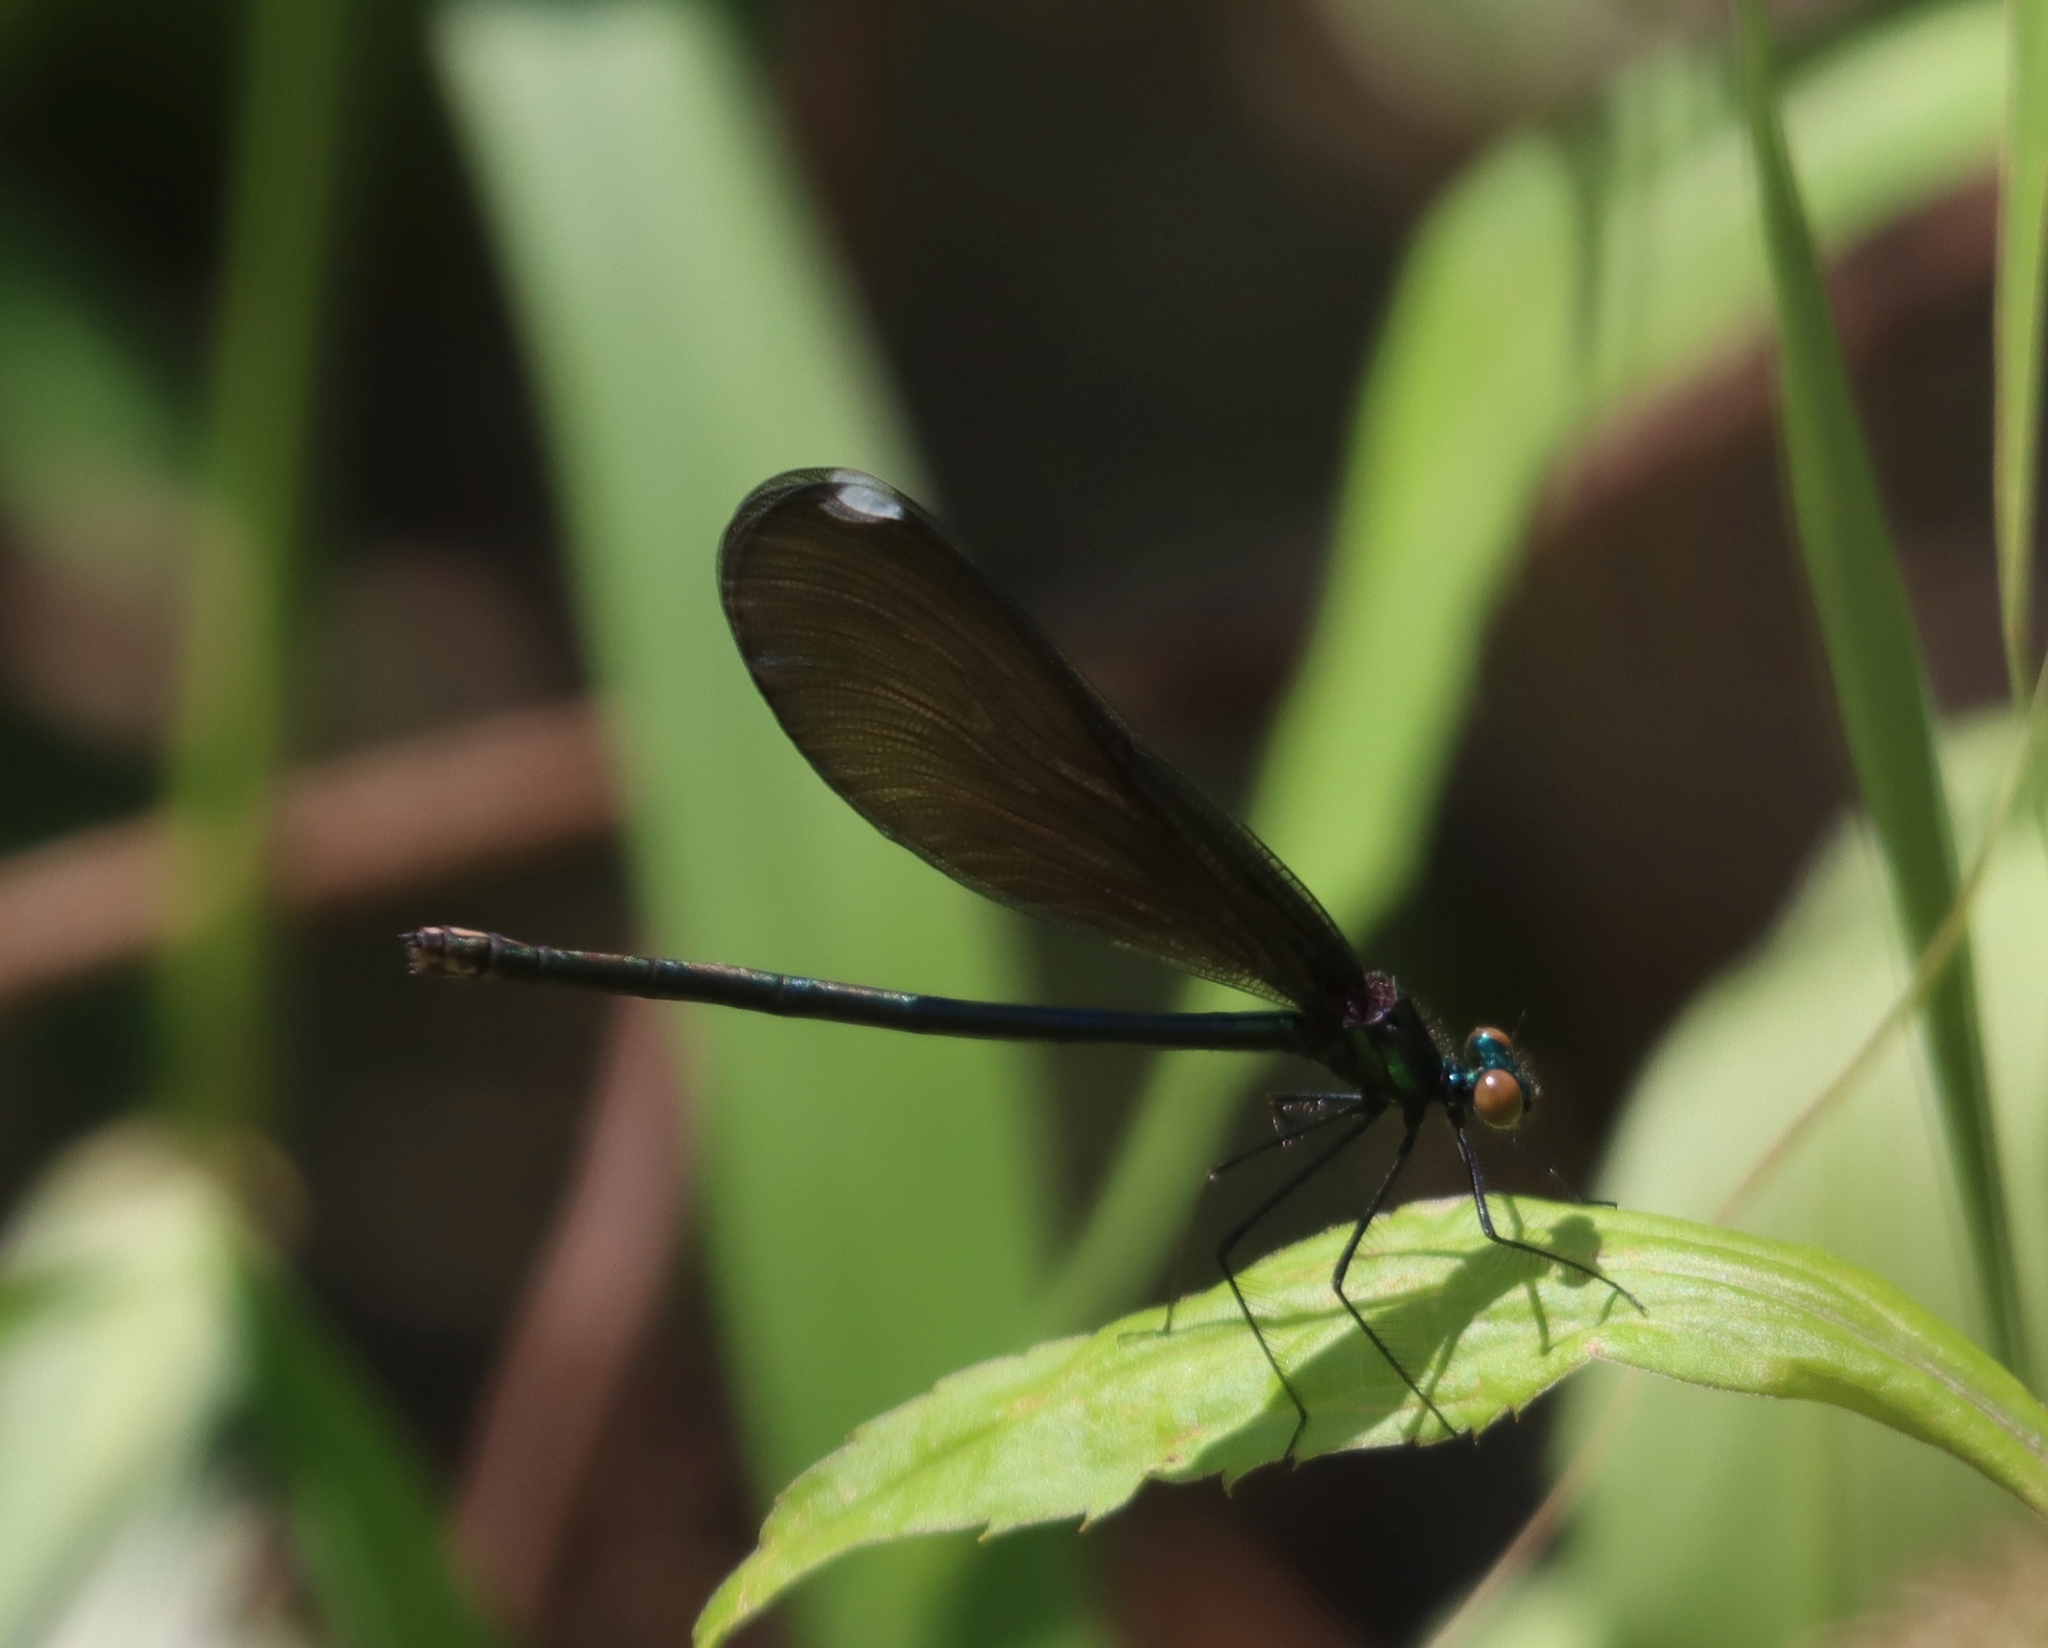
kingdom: Animalia
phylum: Arthropoda
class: Insecta
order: Odonata
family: Calopterygidae
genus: Calopteryx
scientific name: Calopteryx maculata
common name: Ebony jewelwing
